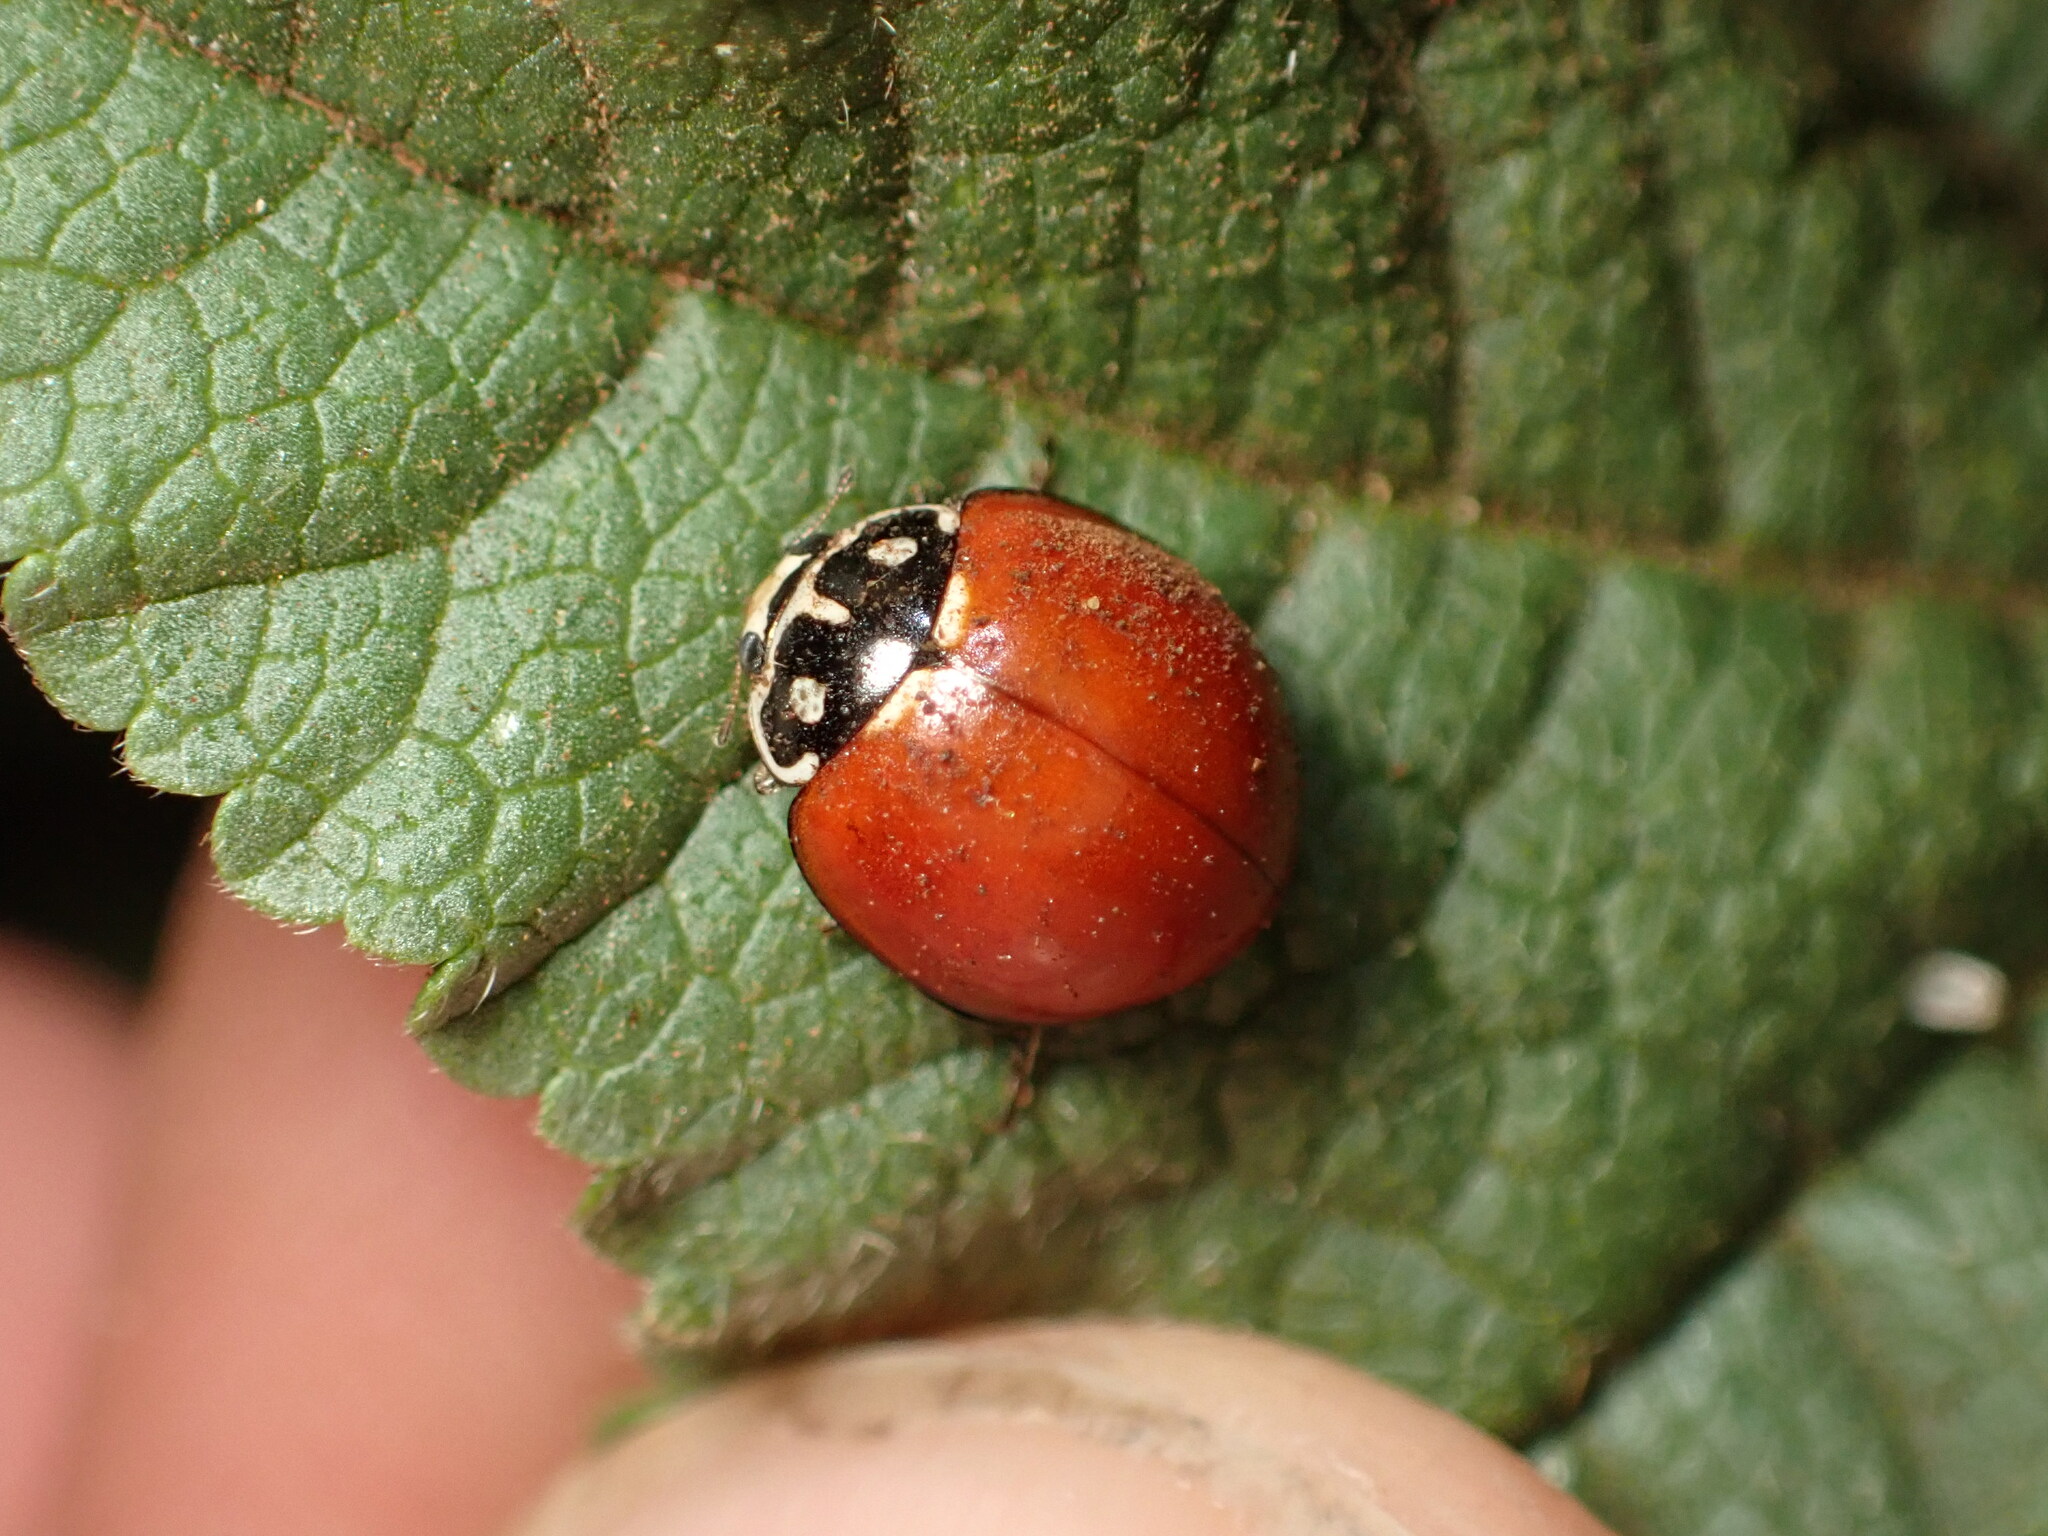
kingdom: Animalia
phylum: Arthropoda
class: Insecta
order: Coleoptera
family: Coccinellidae
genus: Cycloneda
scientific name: Cycloneda sanguinea
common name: Ladybird beetle
